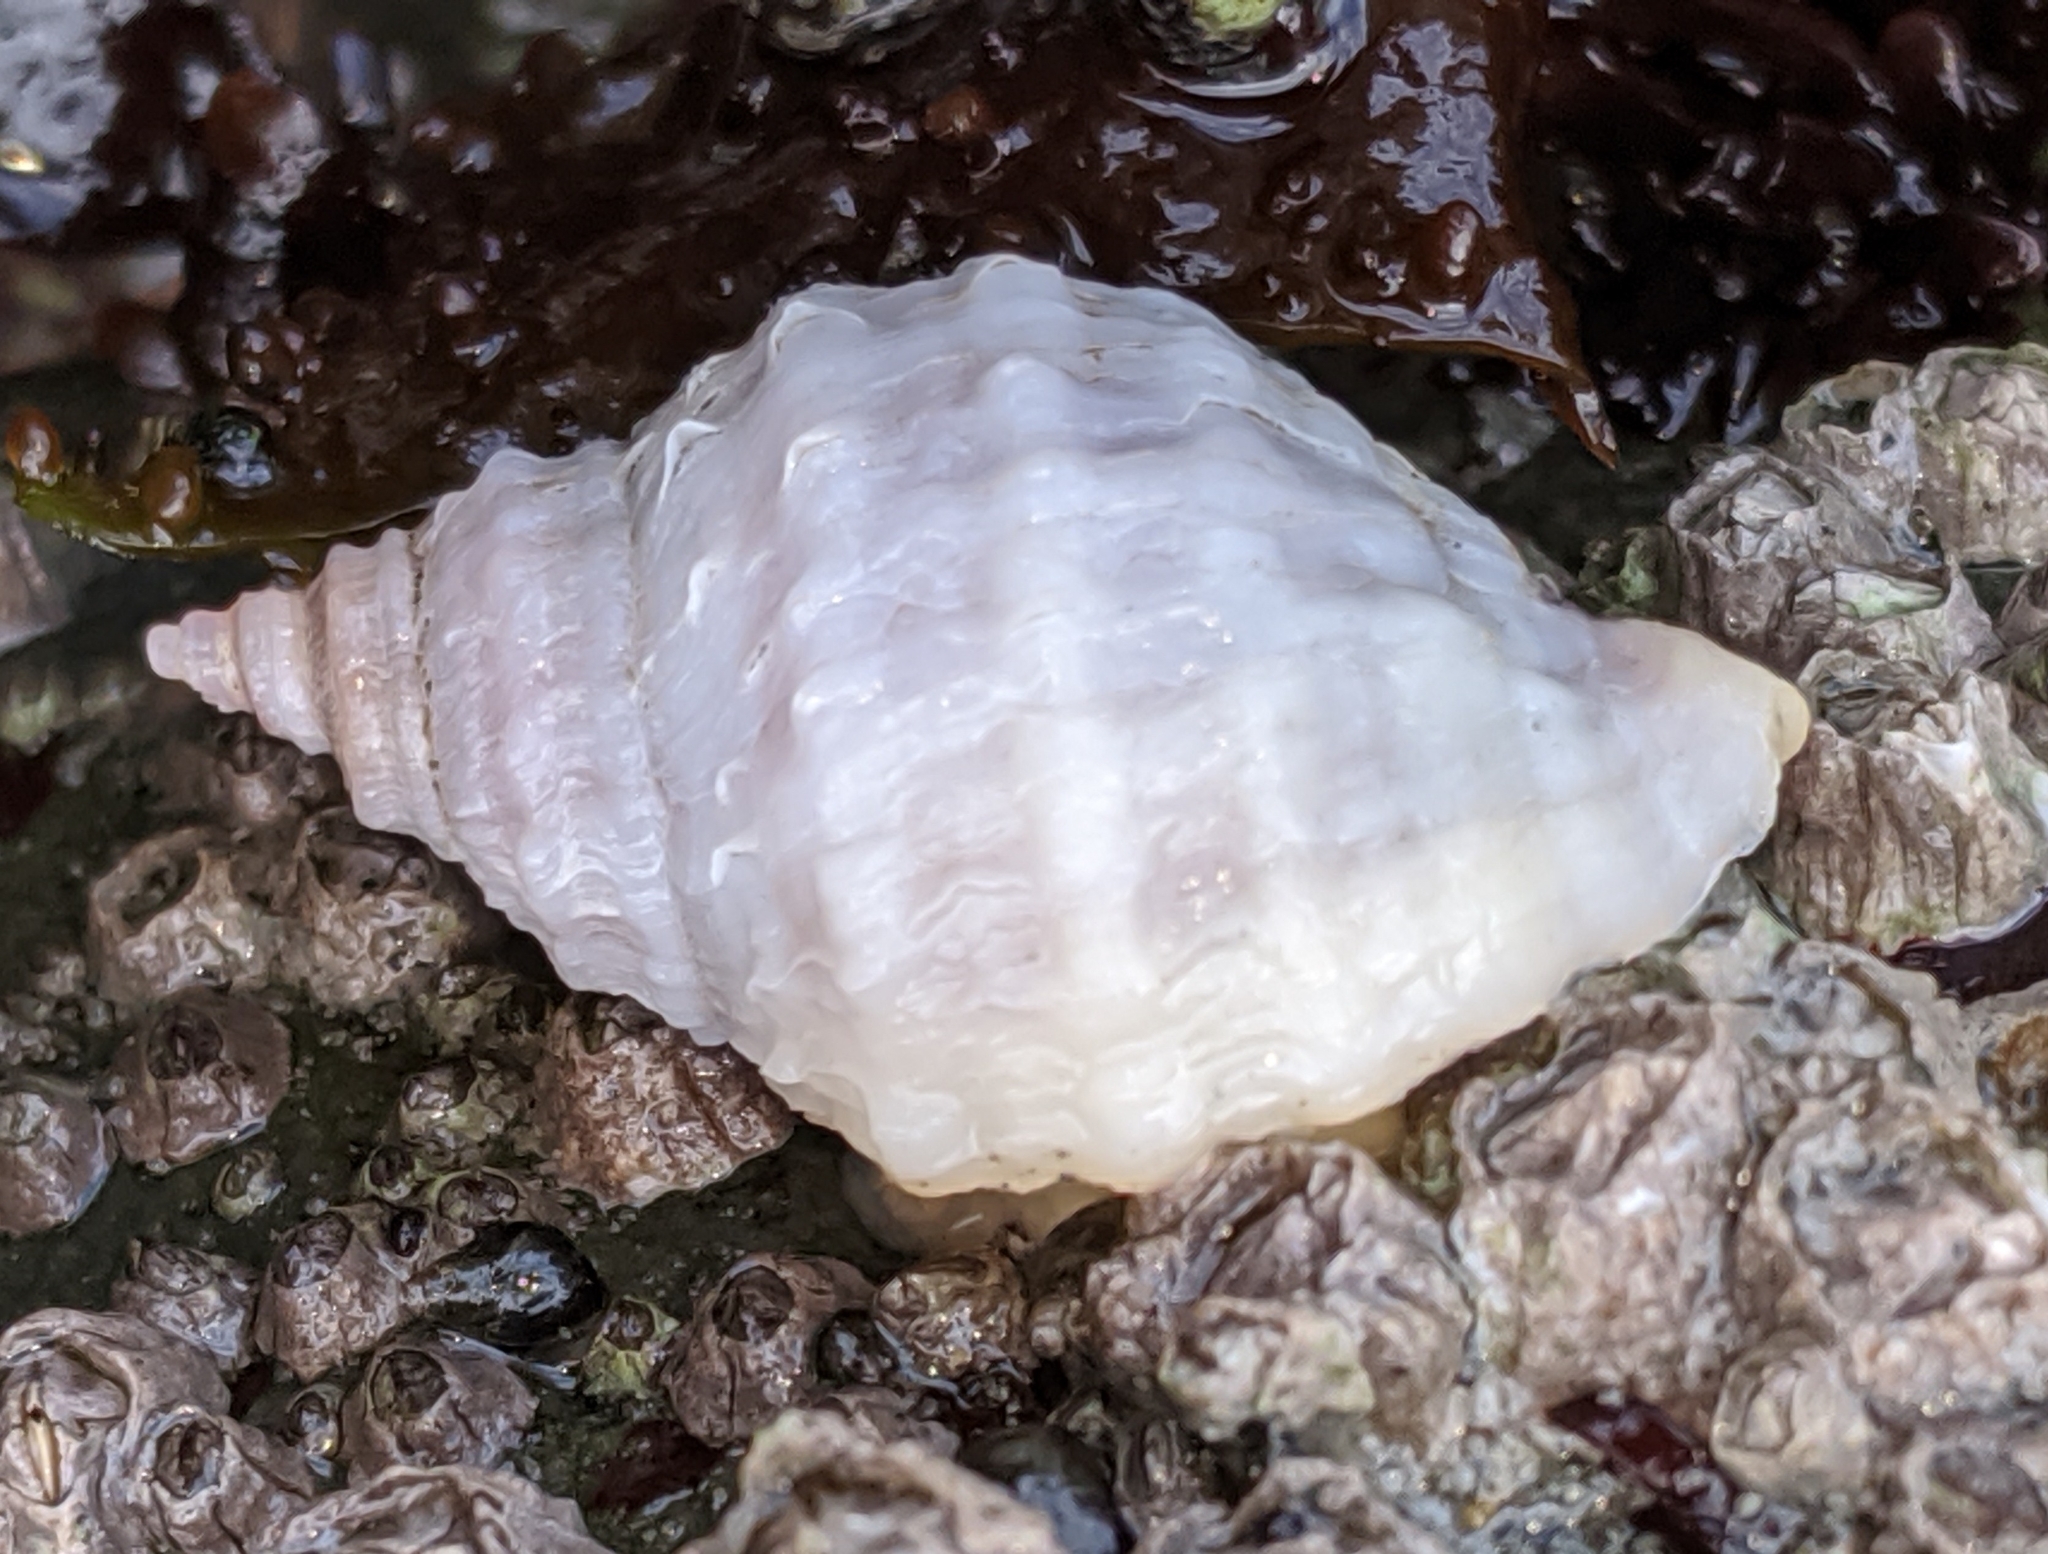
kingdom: Animalia
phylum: Mollusca
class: Gastropoda
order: Neogastropoda
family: Muricidae
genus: Nucella
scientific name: Nucella lamellosa
